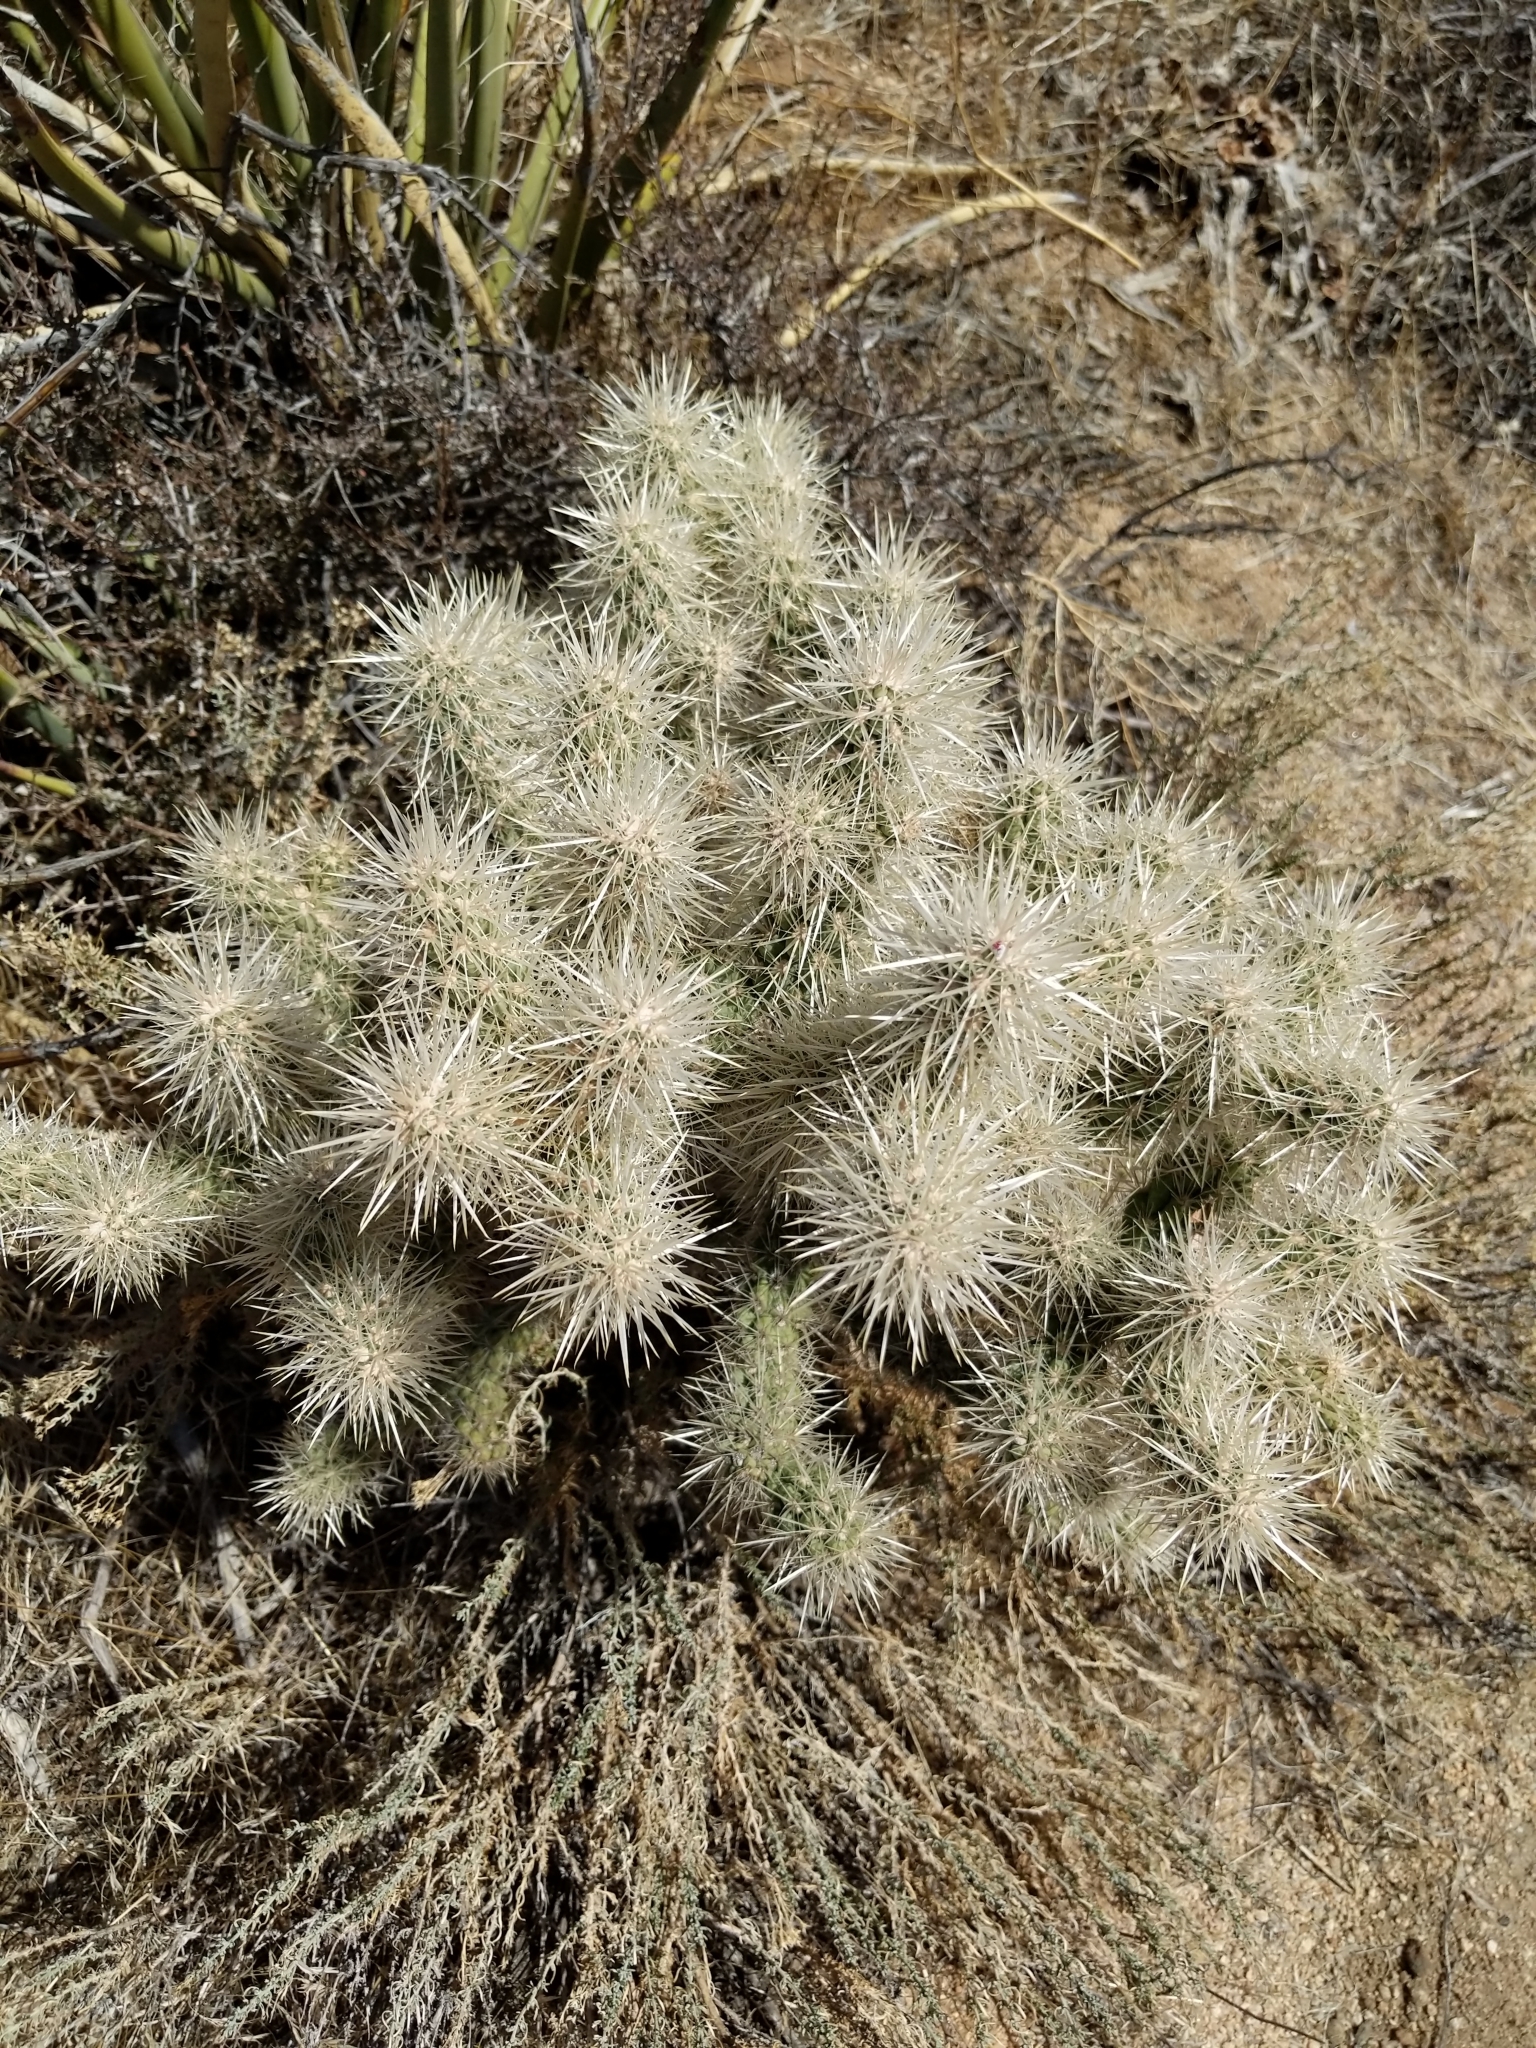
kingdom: Plantae
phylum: Tracheophyta
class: Magnoliopsida
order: Caryophyllales
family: Cactaceae
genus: Cylindropuntia
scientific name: Cylindropuntia echinocarpa
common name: Ground cholla
